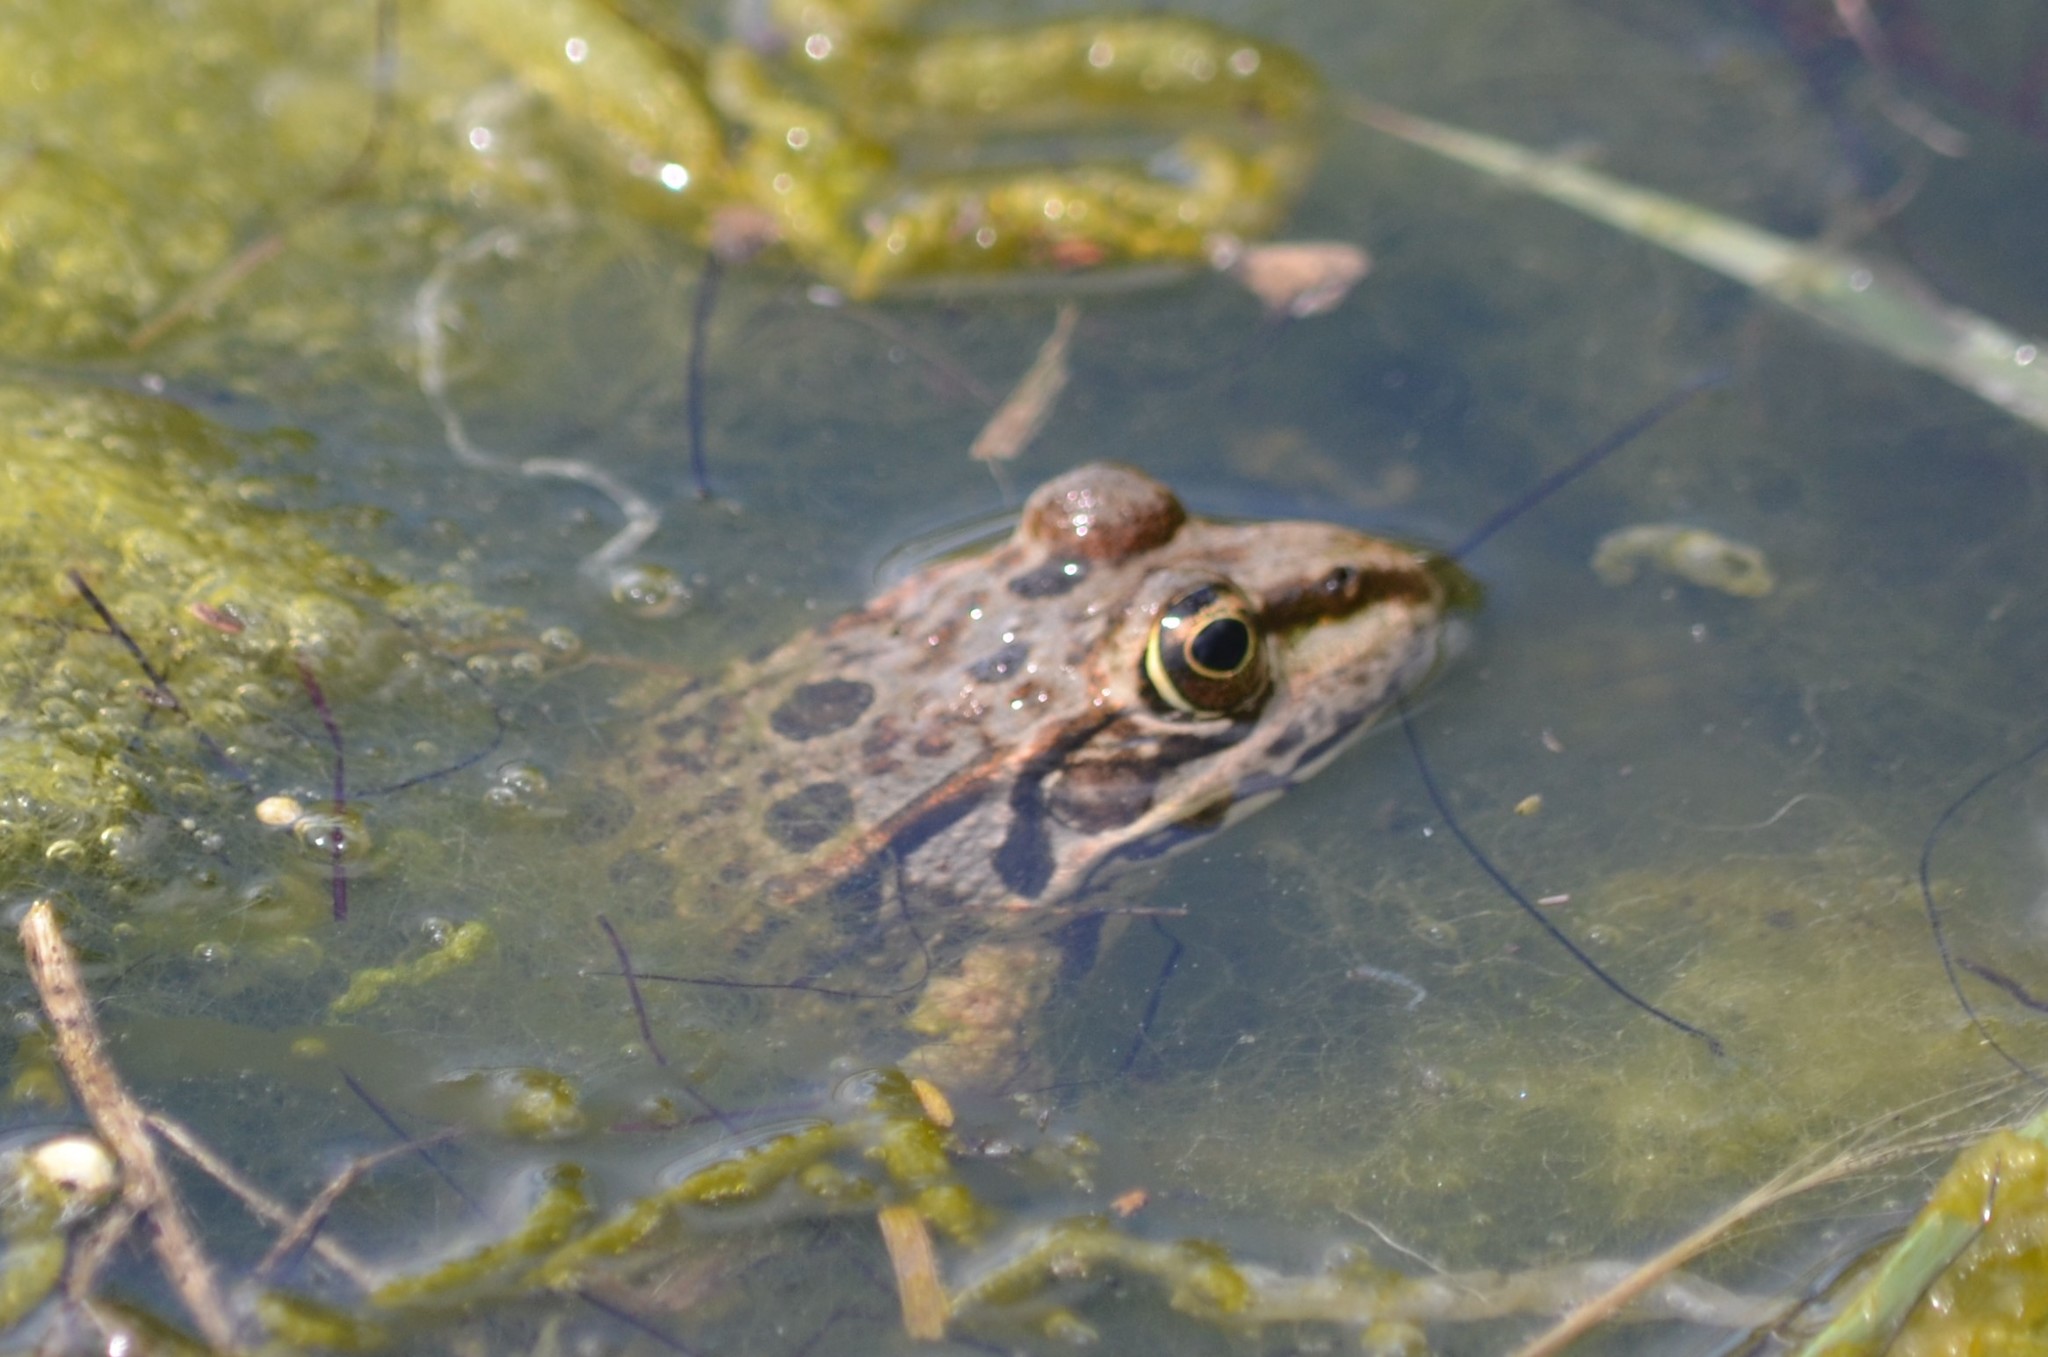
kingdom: Animalia
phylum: Chordata
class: Amphibia
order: Anura
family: Ranidae
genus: Pelophylax
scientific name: Pelophylax ridibundus
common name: Marsh frog
